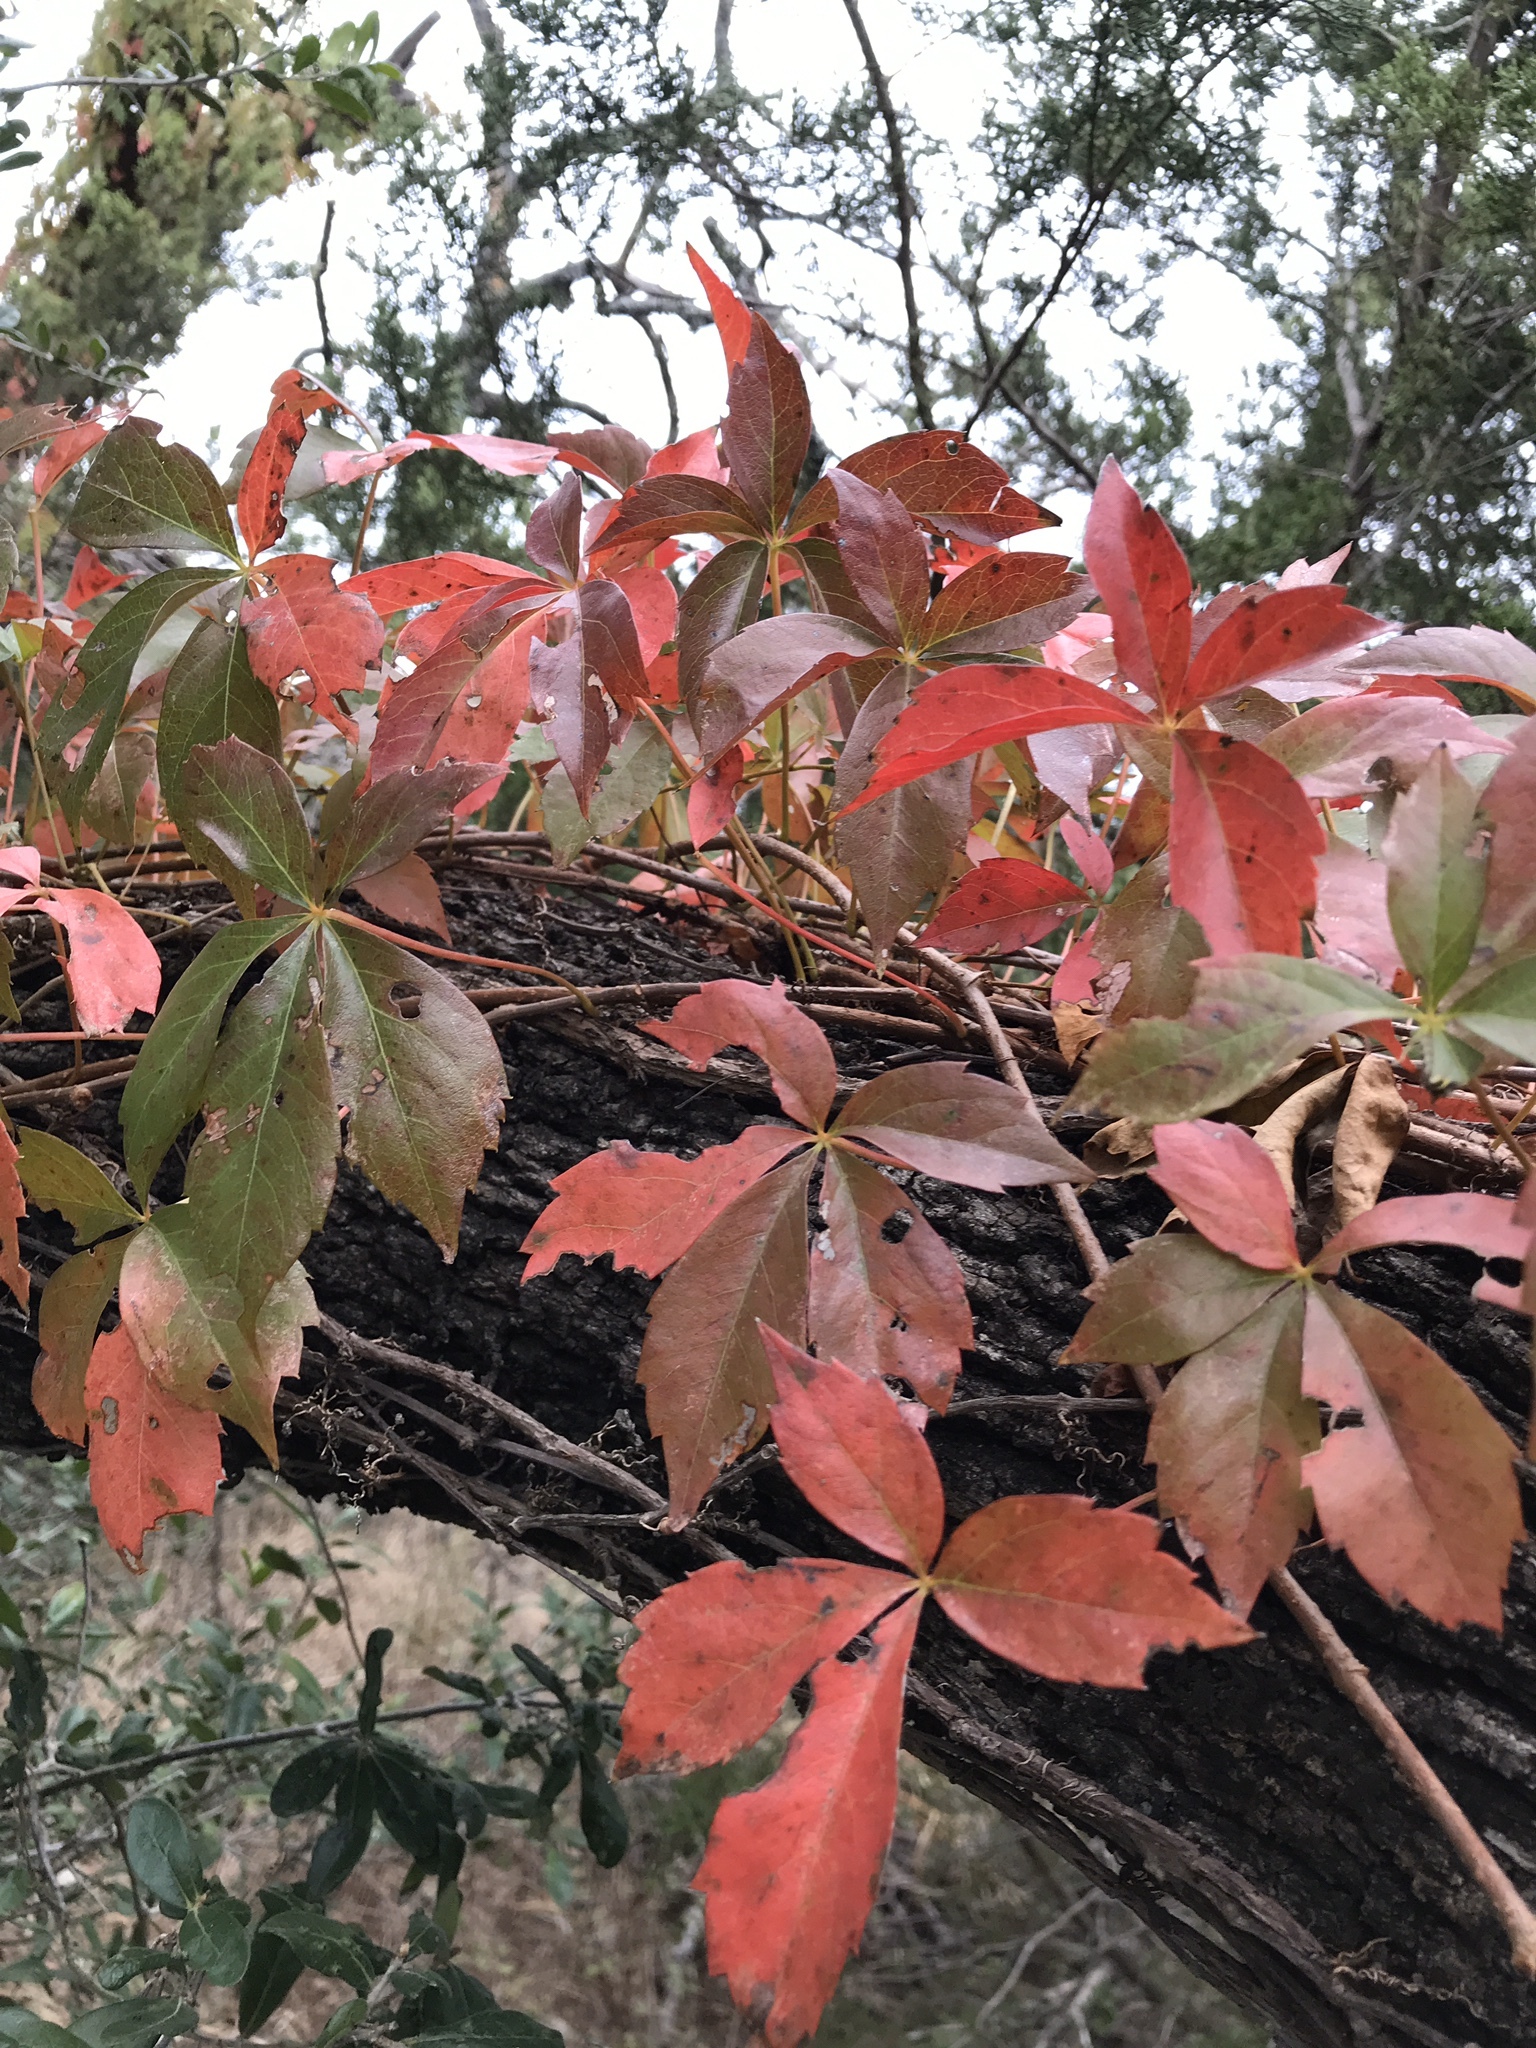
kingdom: Plantae
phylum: Tracheophyta
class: Magnoliopsida
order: Vitales
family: Vitaceae
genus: Parthenocissus
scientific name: Parthenocissus quinquefolia
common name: Virginia-creeper
